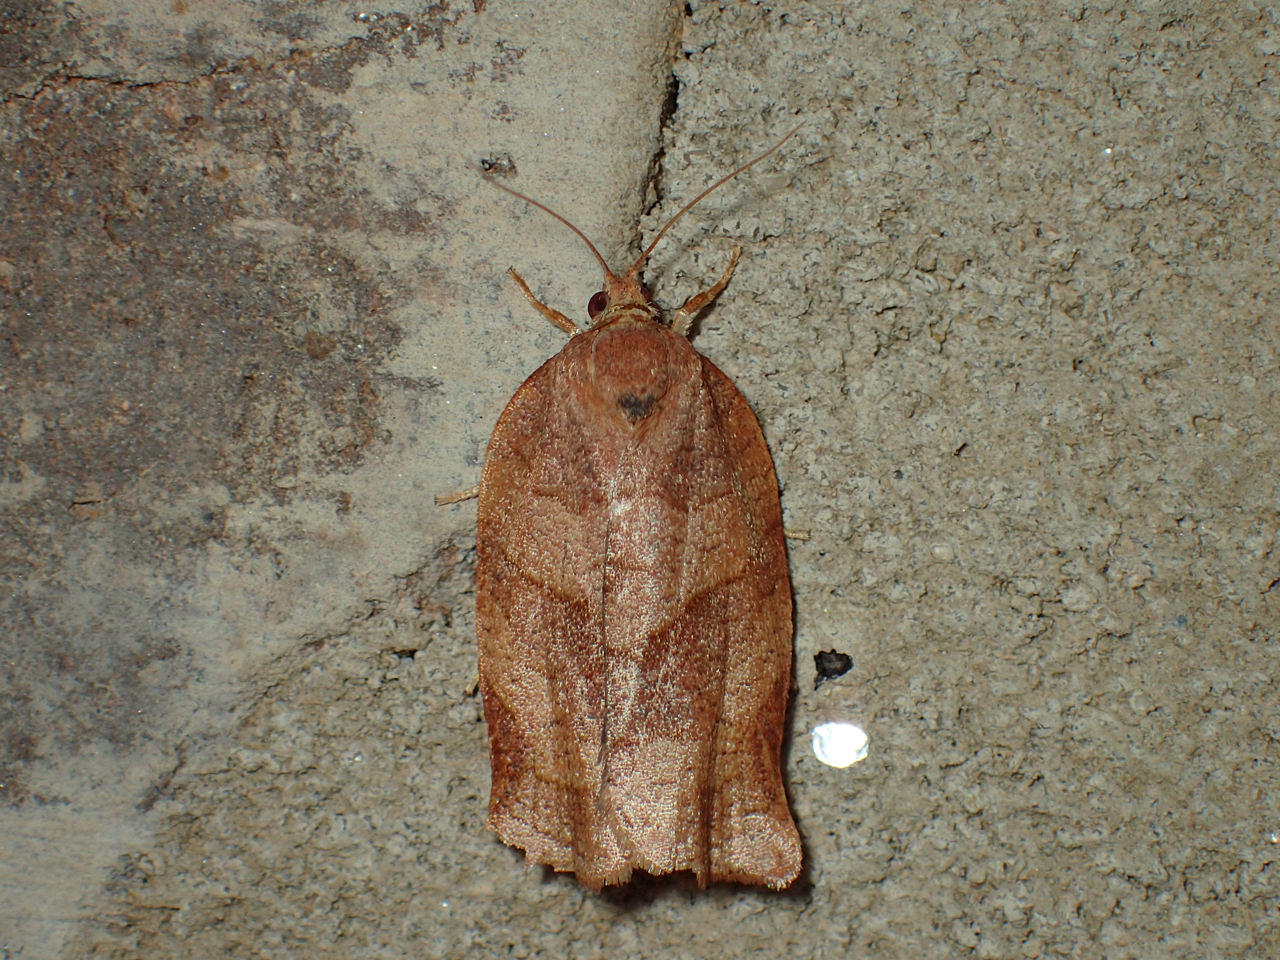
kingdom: Animalia
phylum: Arthropoda
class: Insecta
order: Lepidoptera
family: Tortricidae
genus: Choristoneura
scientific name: Choristoneura rosaceana
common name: Oblique-banded leafroller moth
